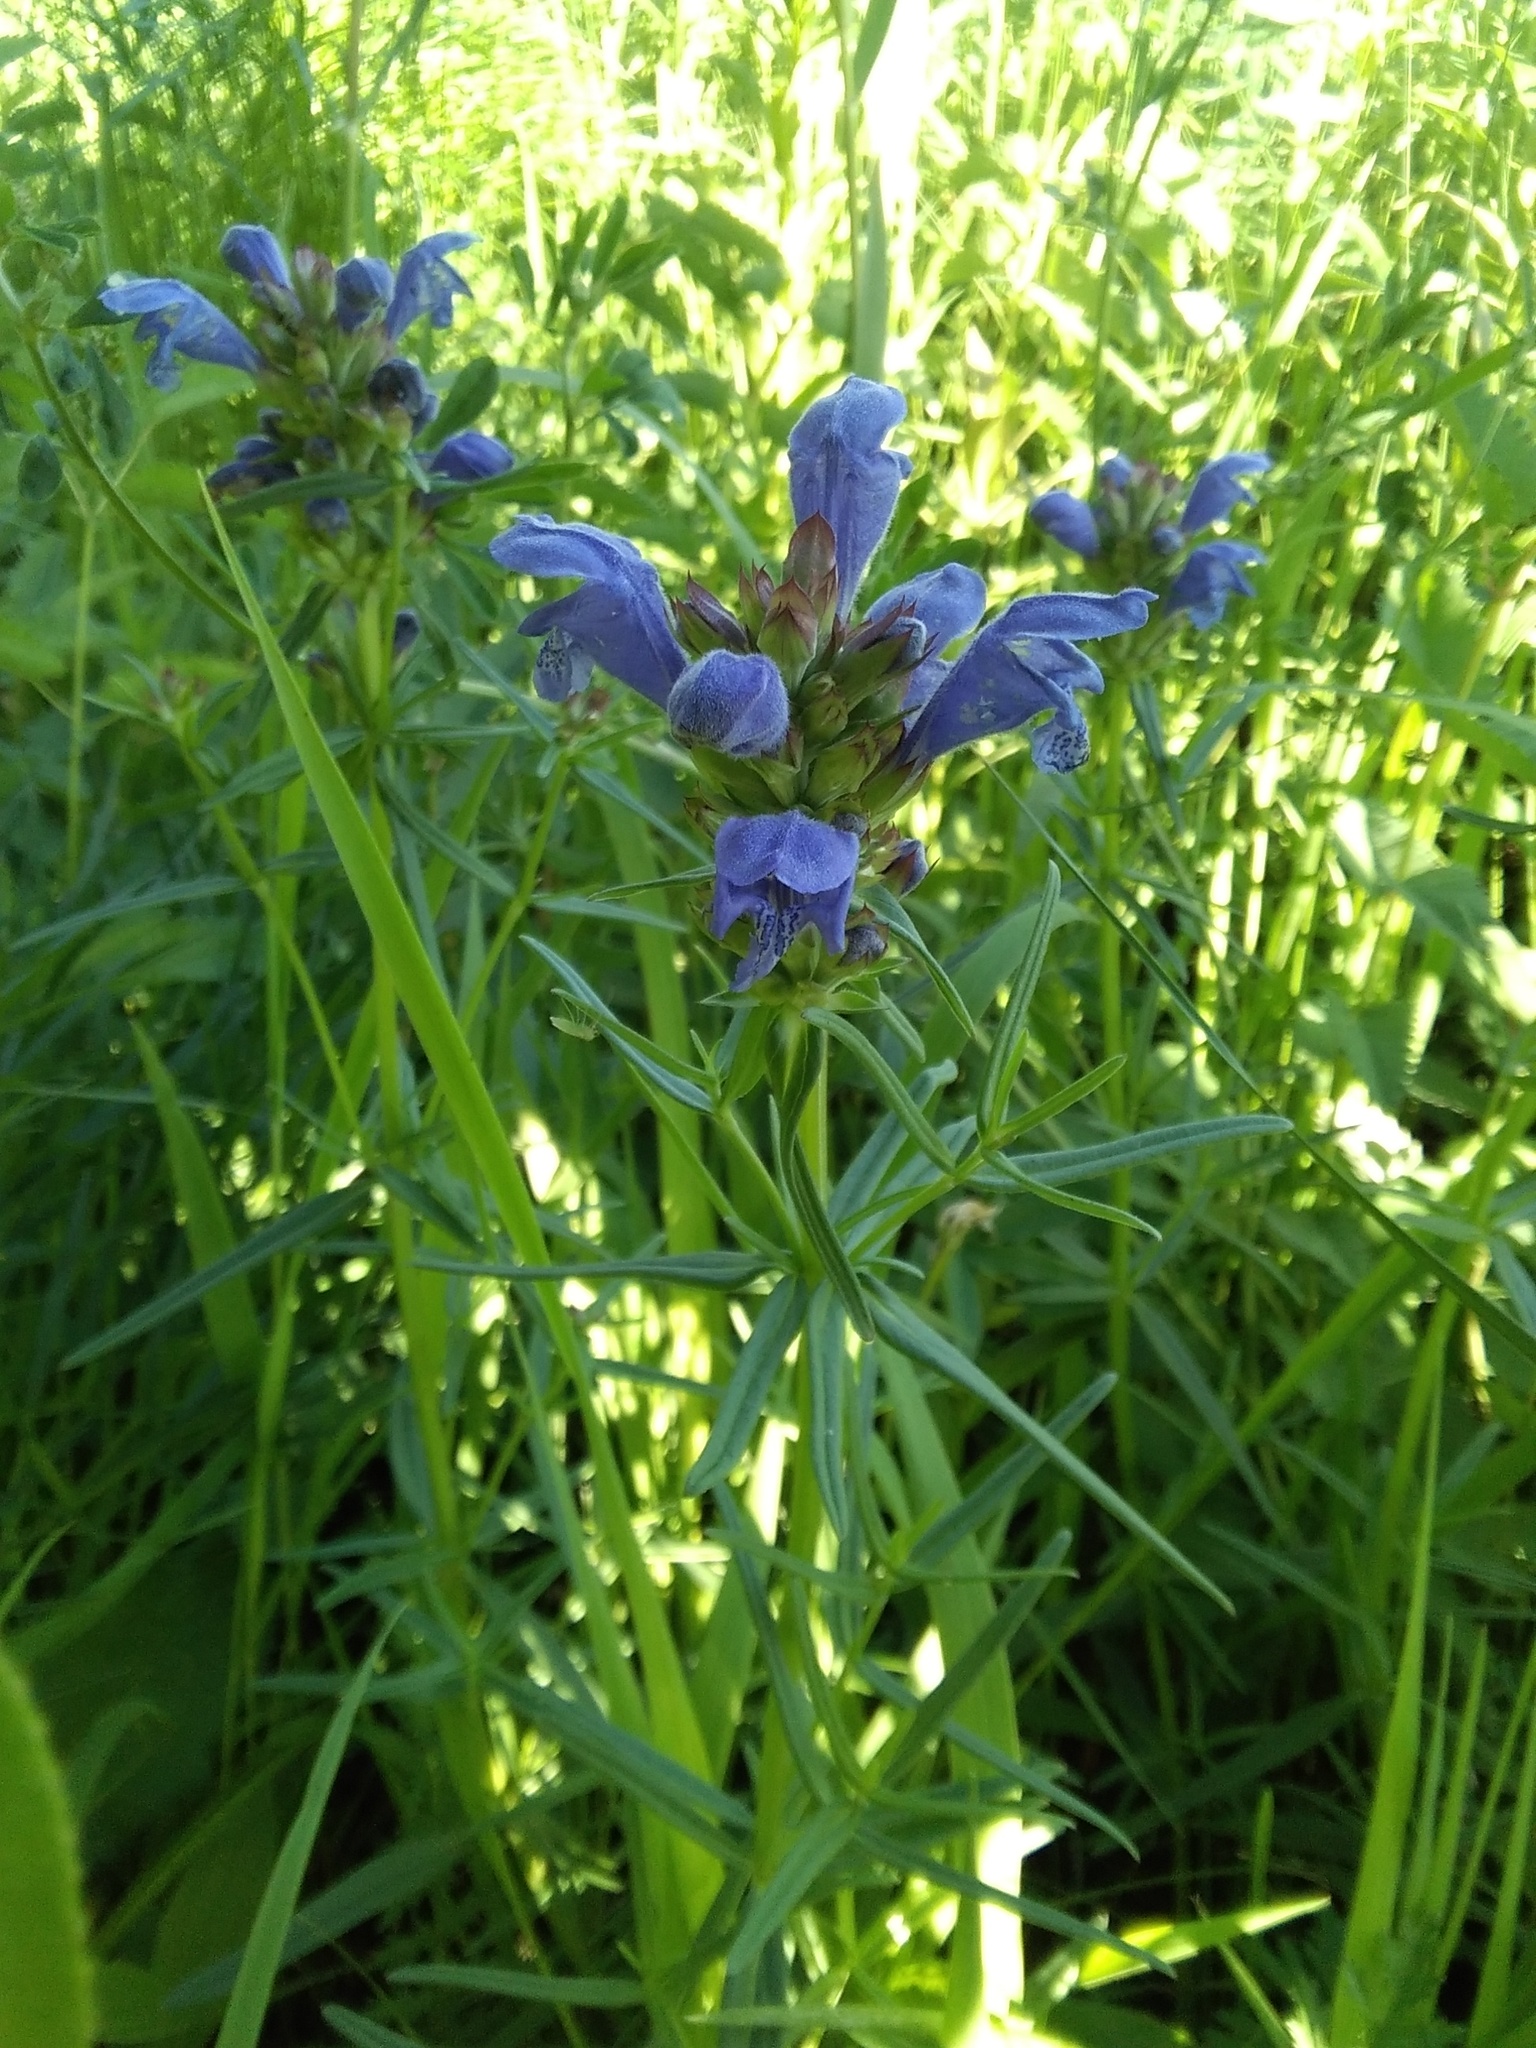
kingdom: Plantae
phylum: Tracheophyta
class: Magnoliopsida
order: Lamiales
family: Lamiaceae
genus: Dracocephalum
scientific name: Dracocephalum ruyschiana
